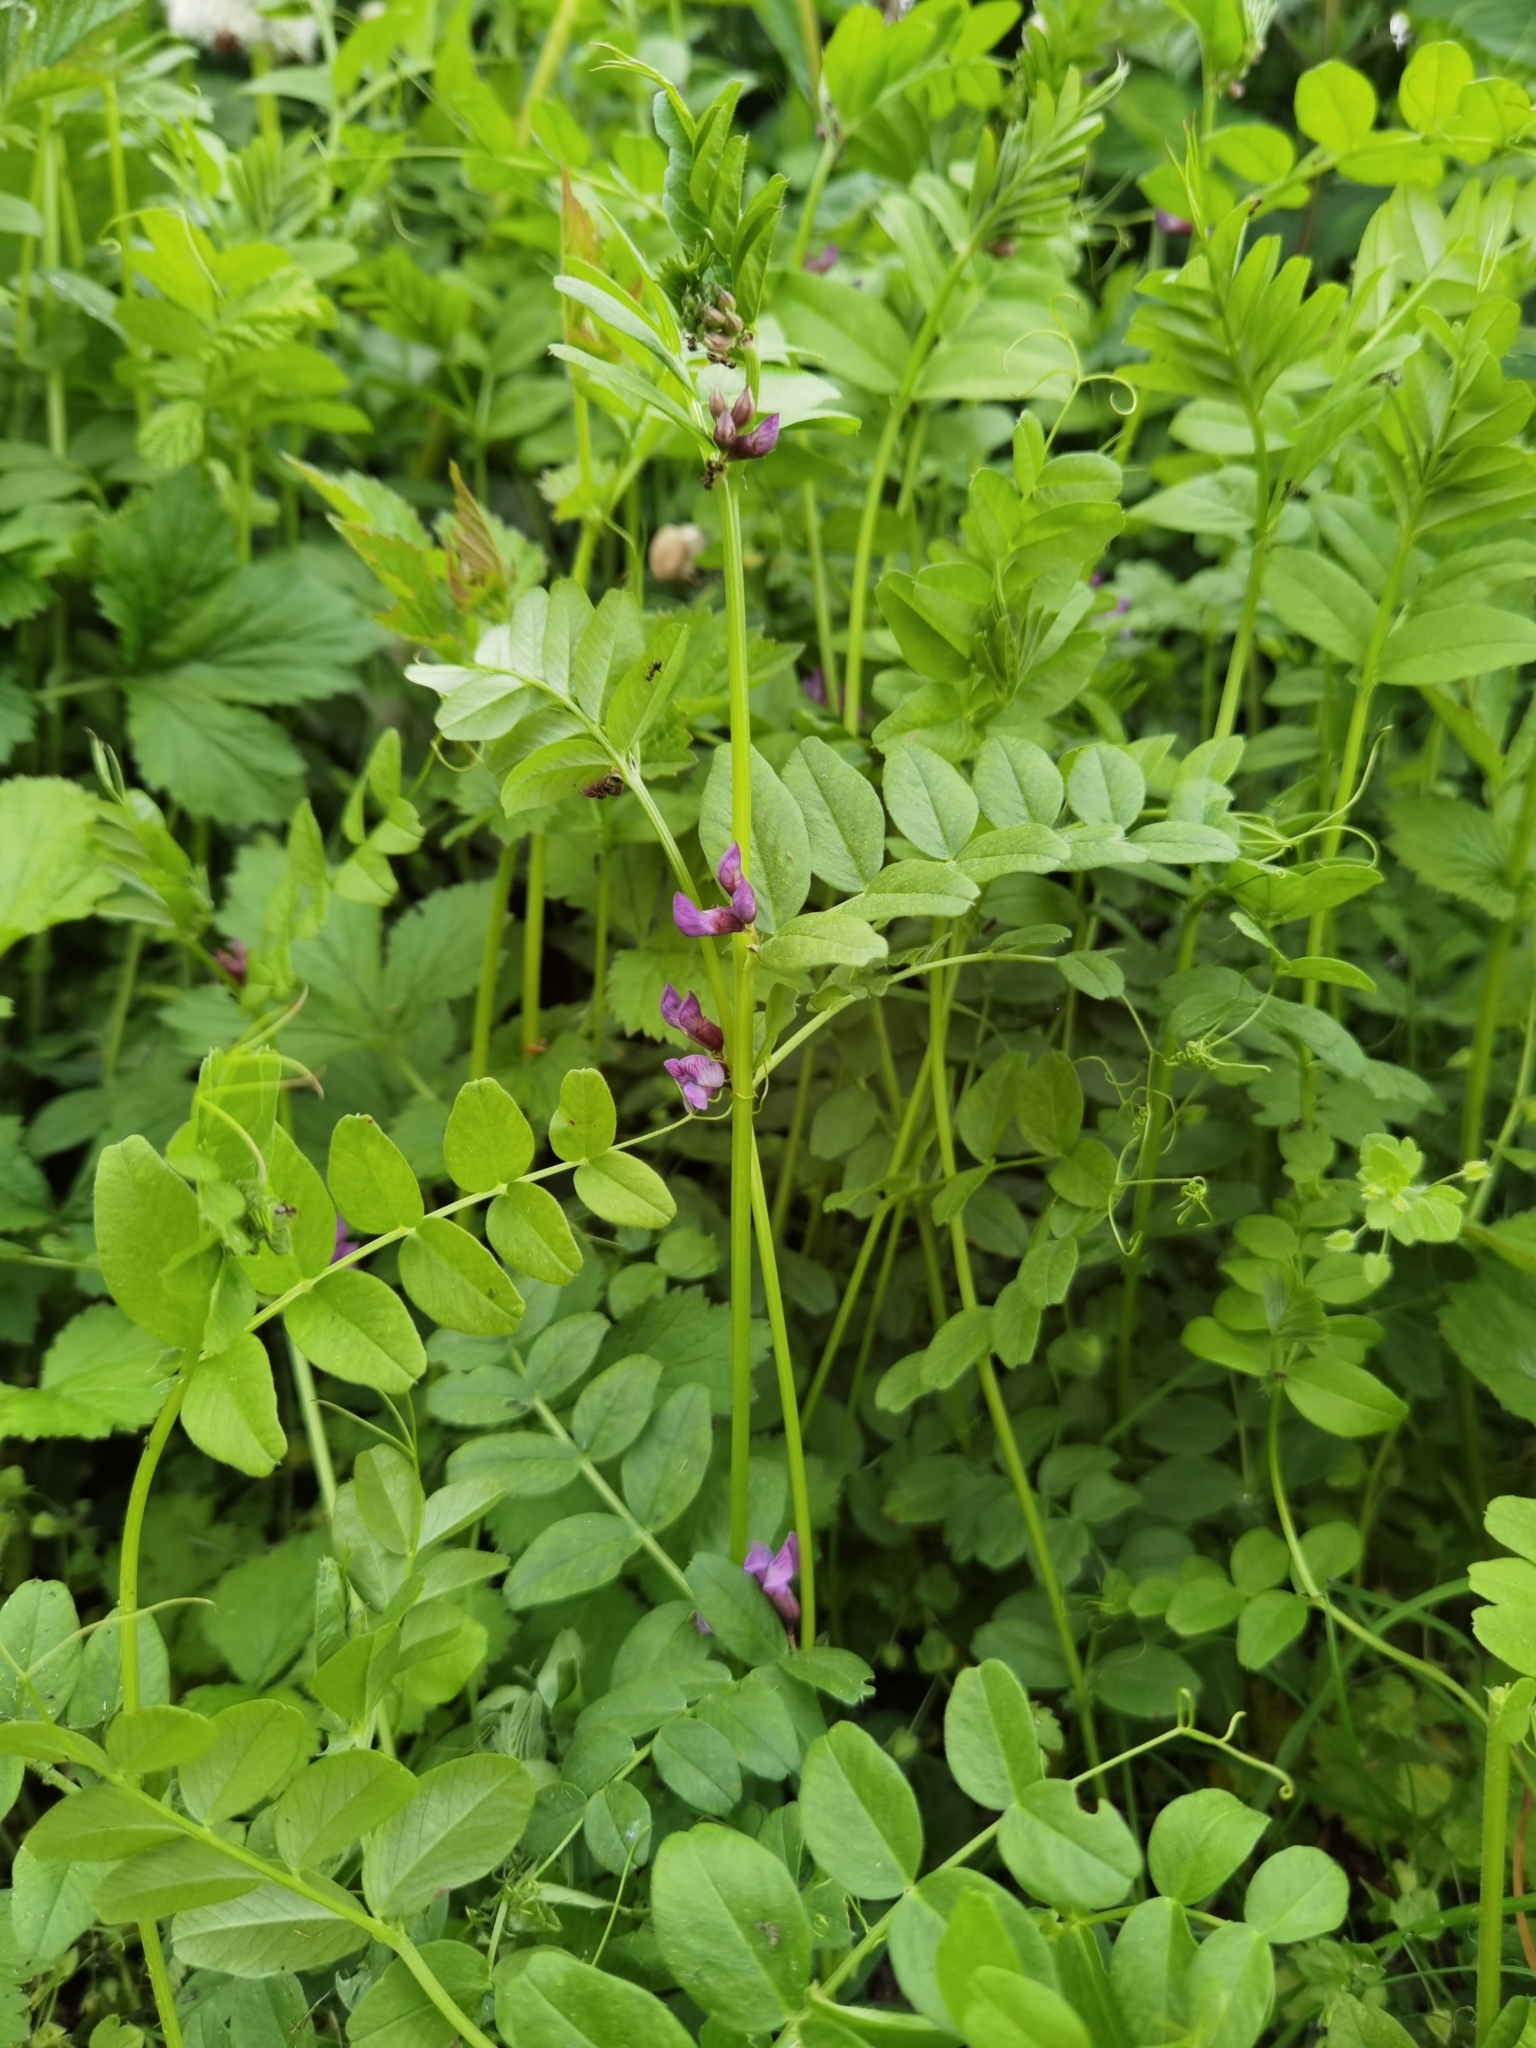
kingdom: Plantae
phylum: Tracheophyta
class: Magnoliopsida
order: Fabales
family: Fabaceae
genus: Vicia
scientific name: Vicia sepium
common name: Bush vetch
